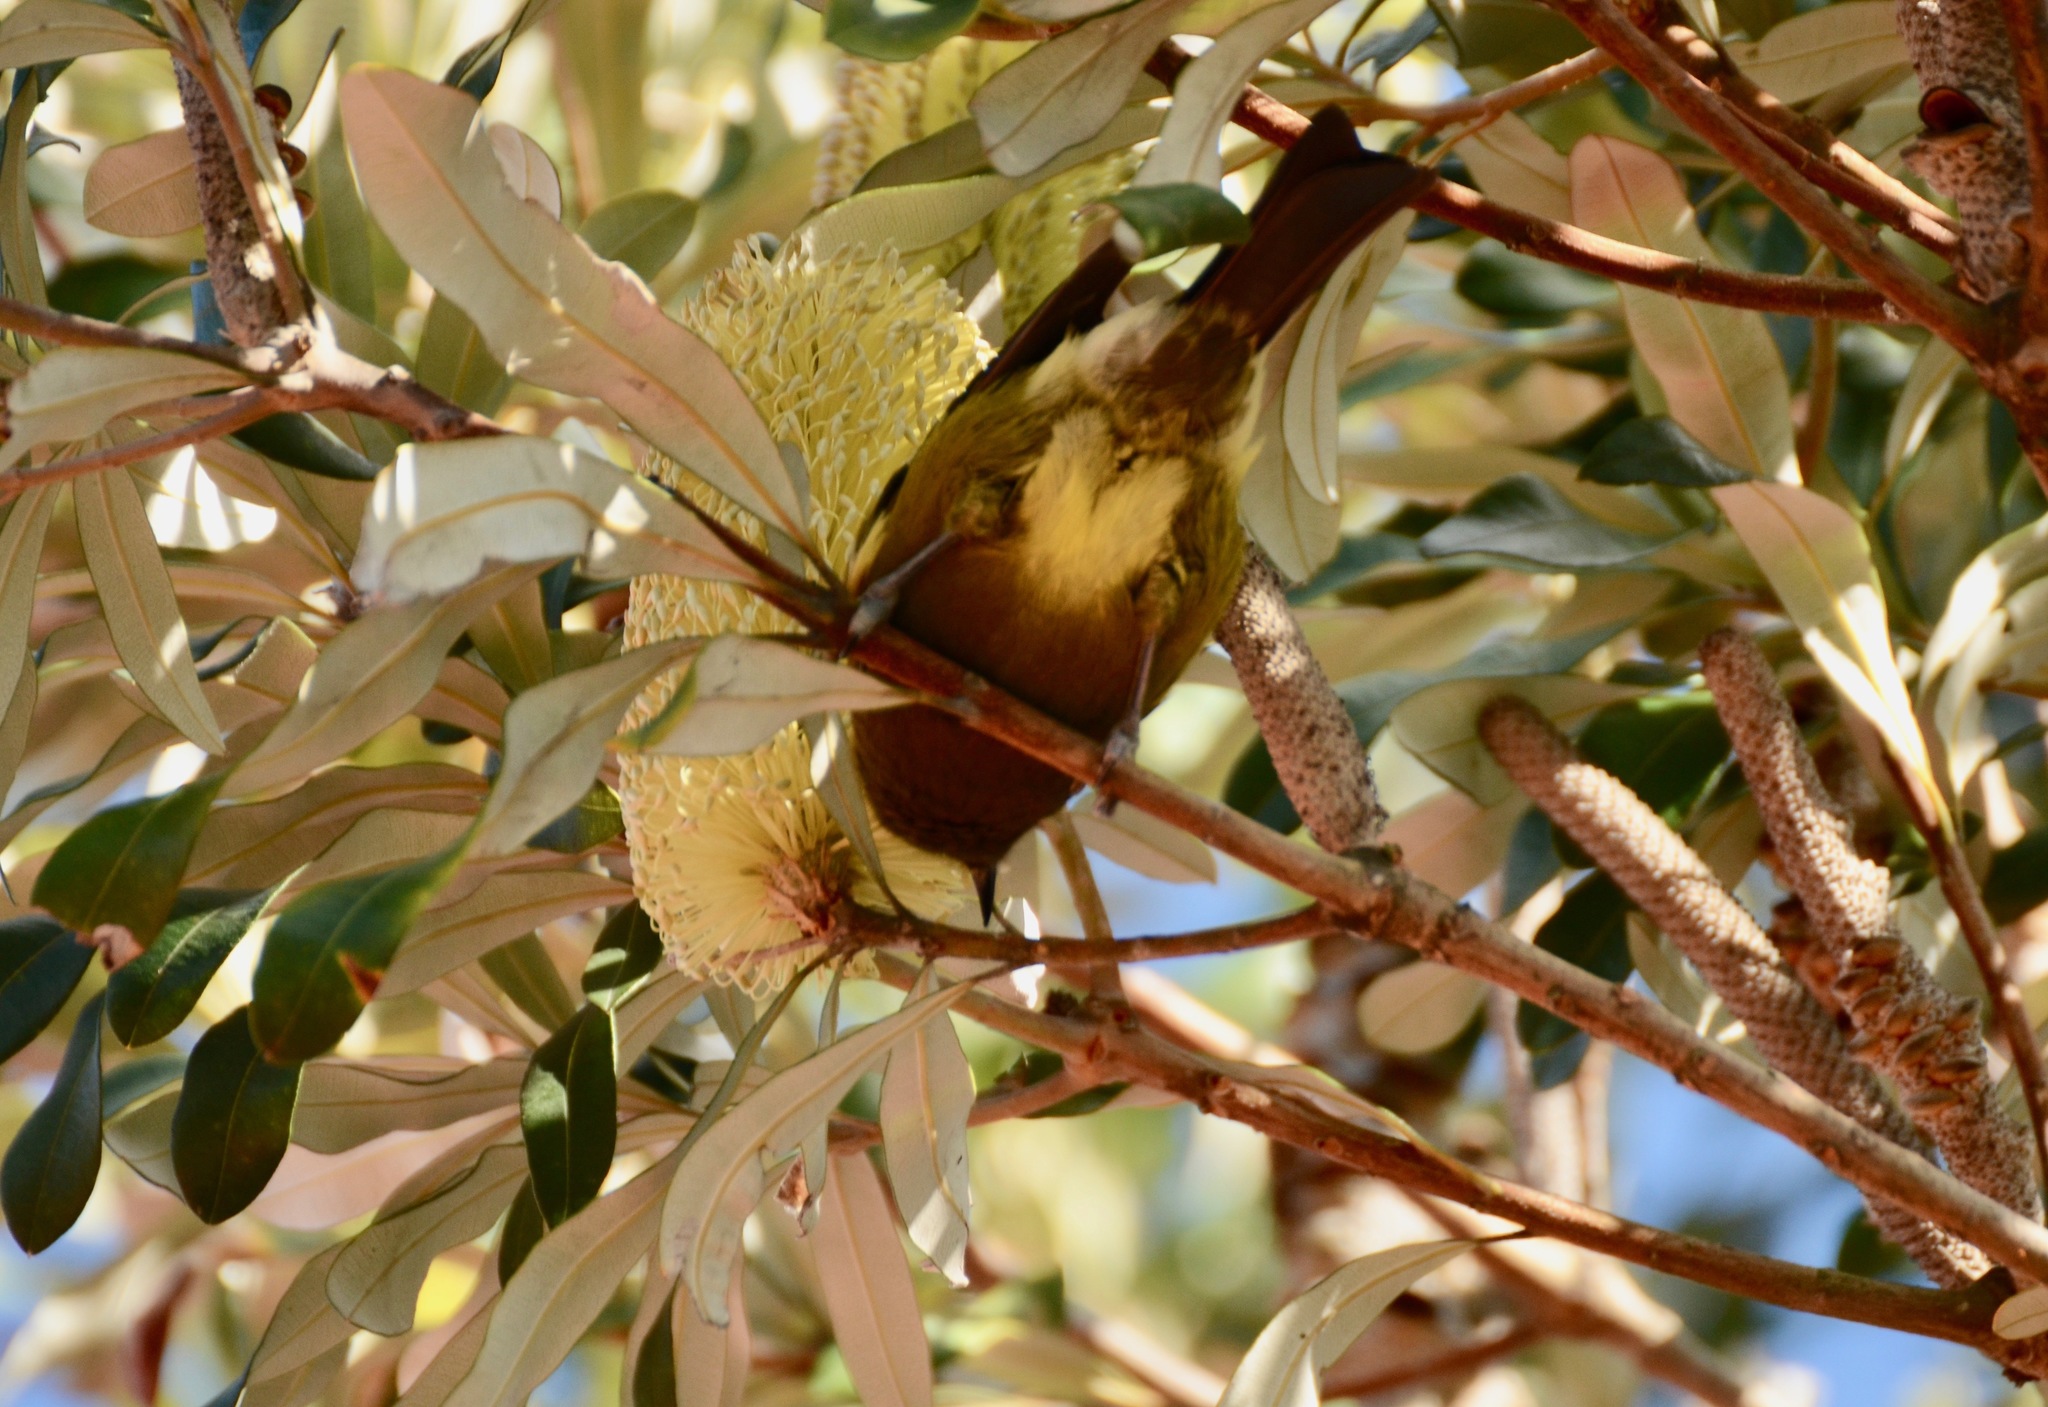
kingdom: Animalia
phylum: Chordata
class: Aves
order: Passeriformes
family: Meliphagidae
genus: Anthornis
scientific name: Anthornis melanura
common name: New zealand bellbird
